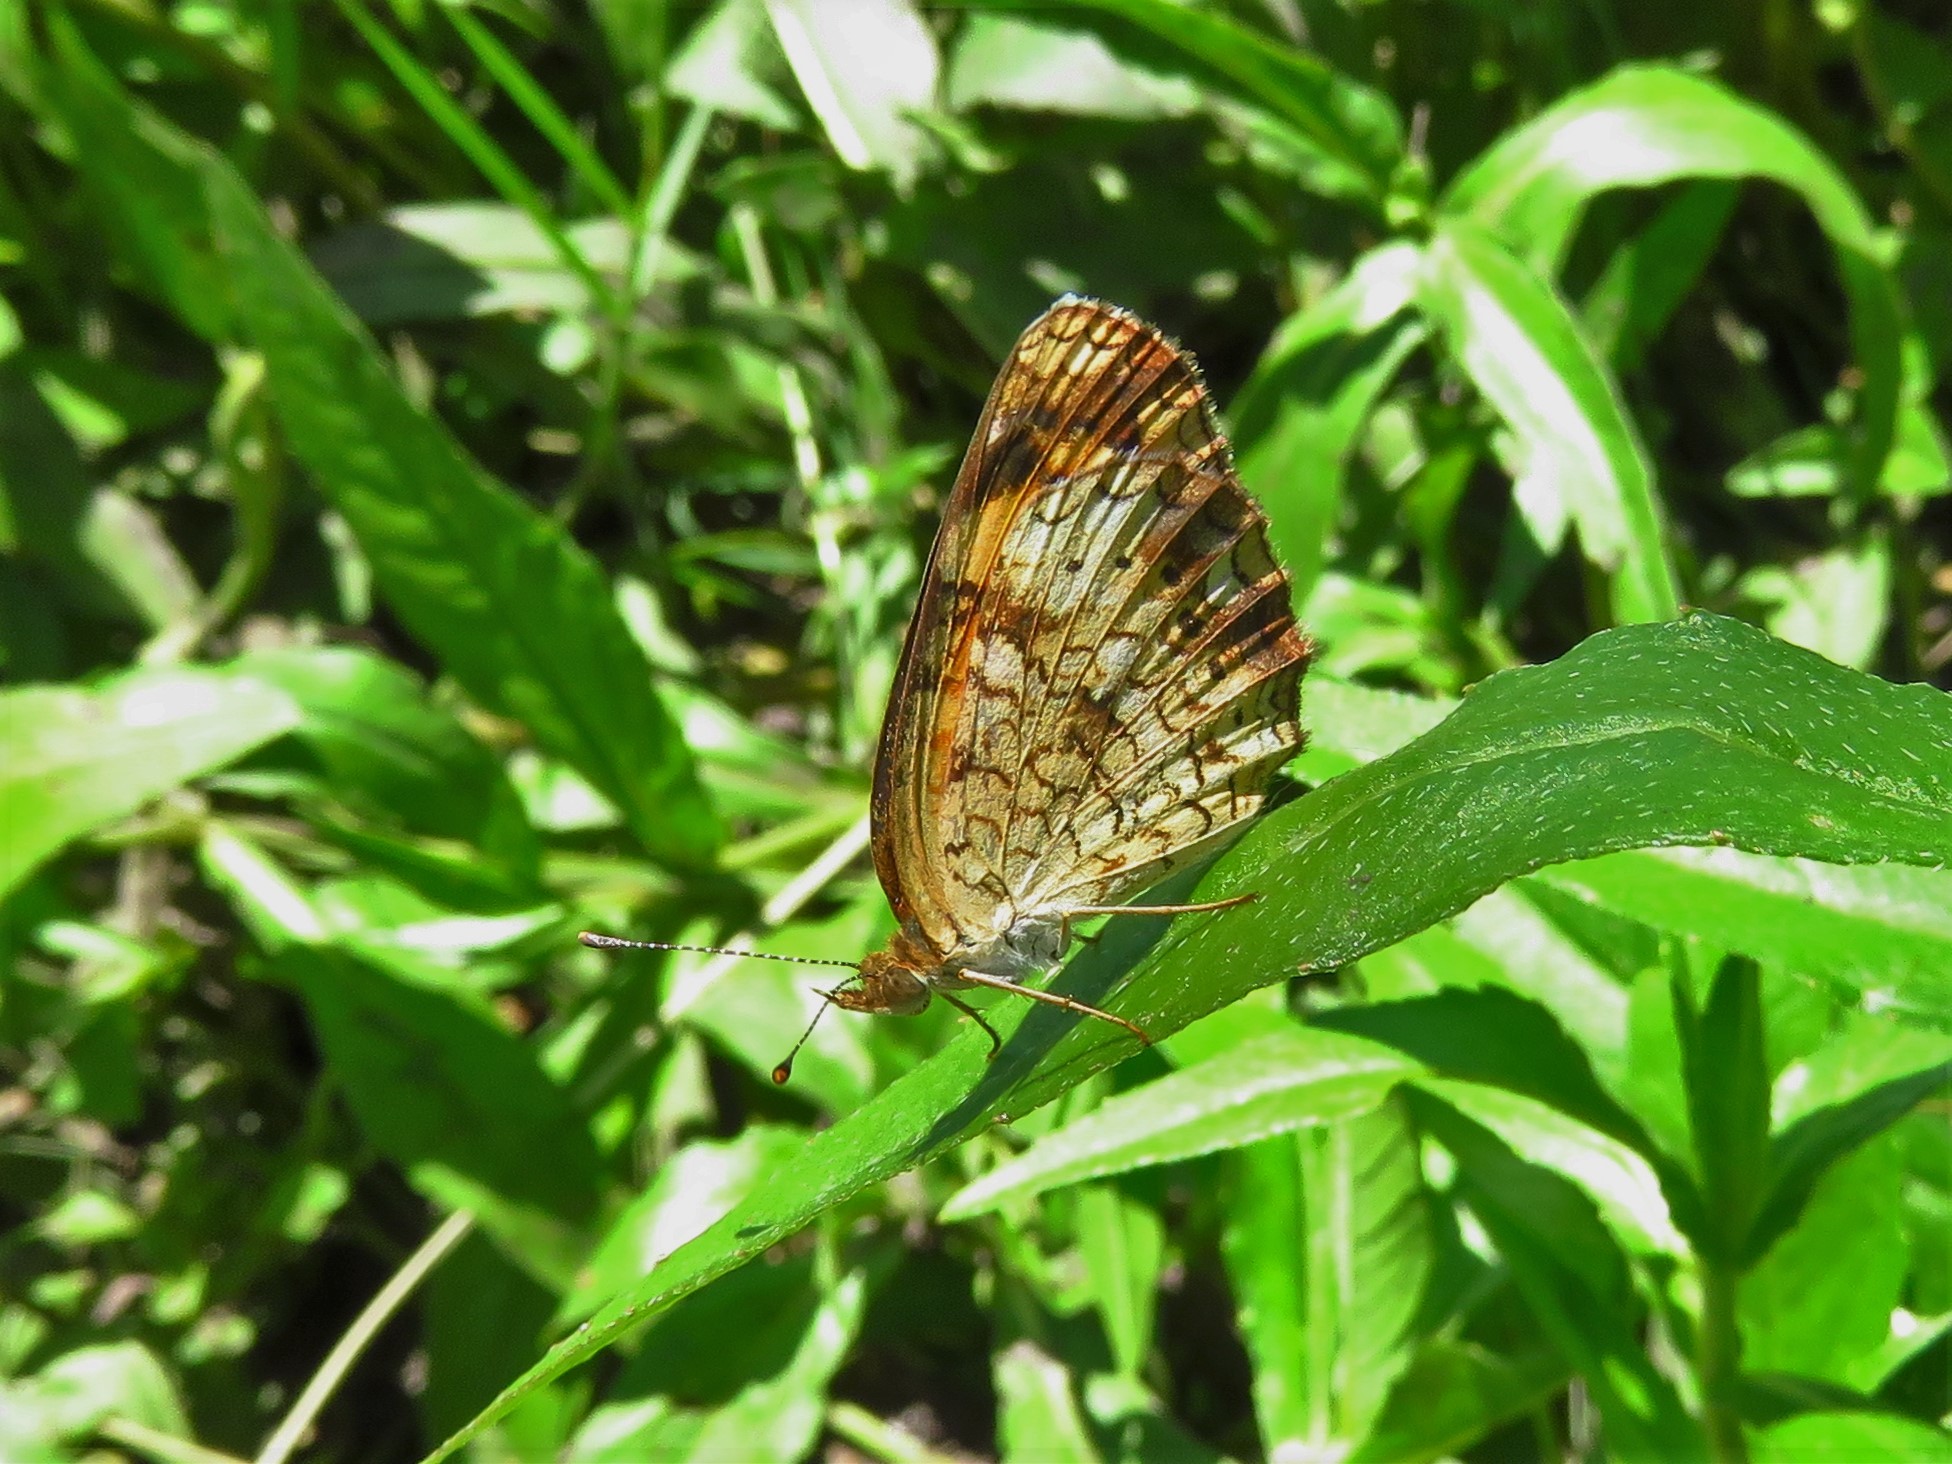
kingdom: Animalia
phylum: Arthropoda
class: Insecta
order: Lepidoptera
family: Nymphalidae
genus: Phyciodes
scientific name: Phyciodes tharos
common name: Pearl crescent
